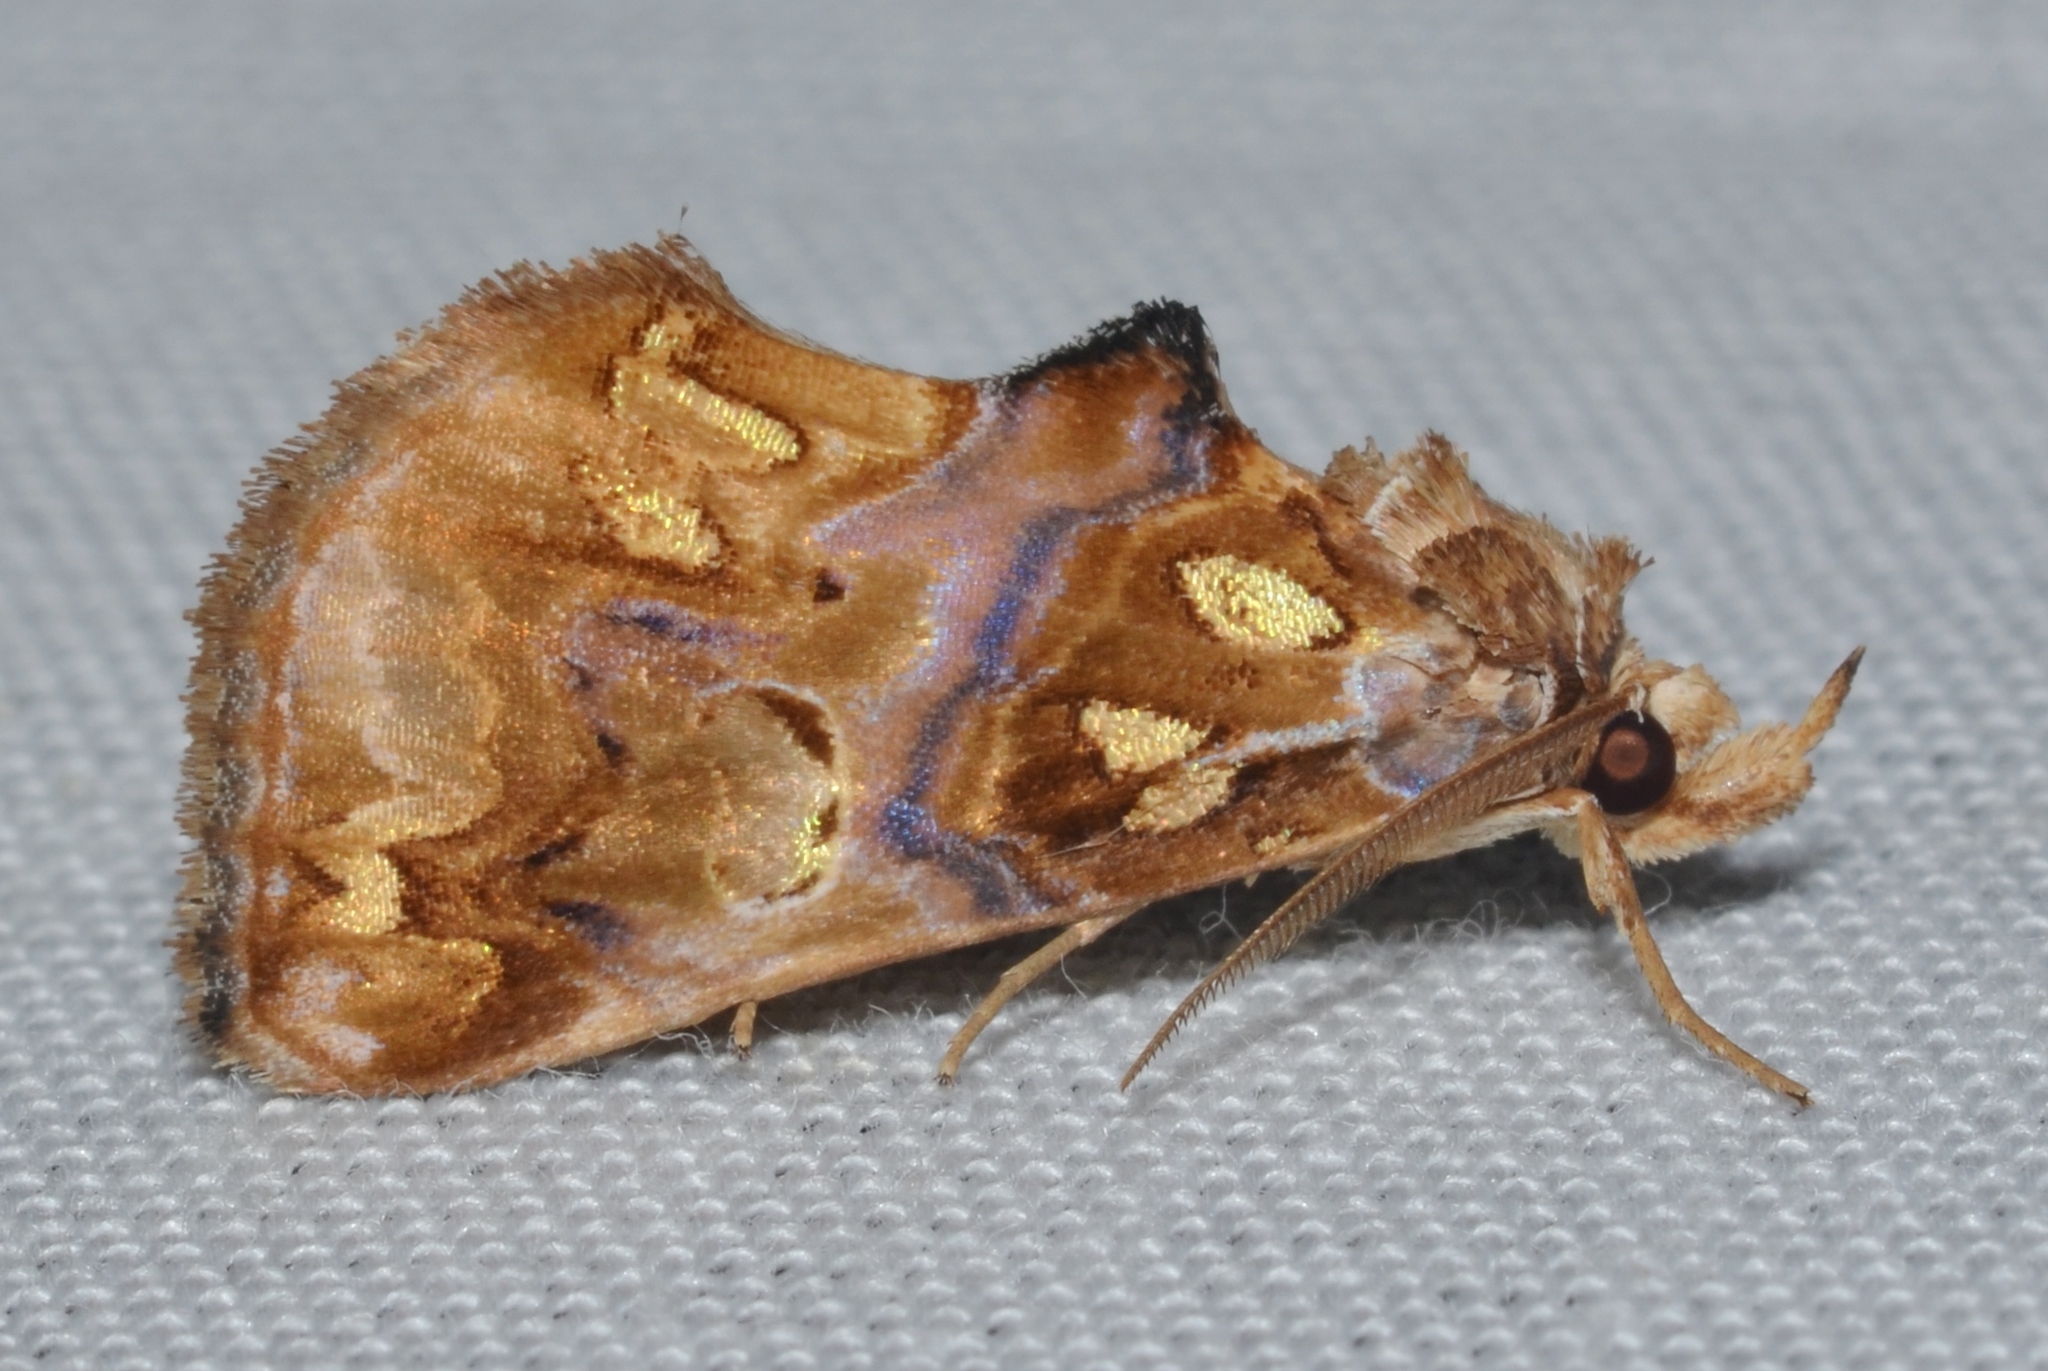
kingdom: Animalia
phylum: Arthropoda
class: Insecta
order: Lepidoptera
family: Erebidae
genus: Plusiodonta
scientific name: Plusiodonta compressipalpis
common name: Moonseed moth
